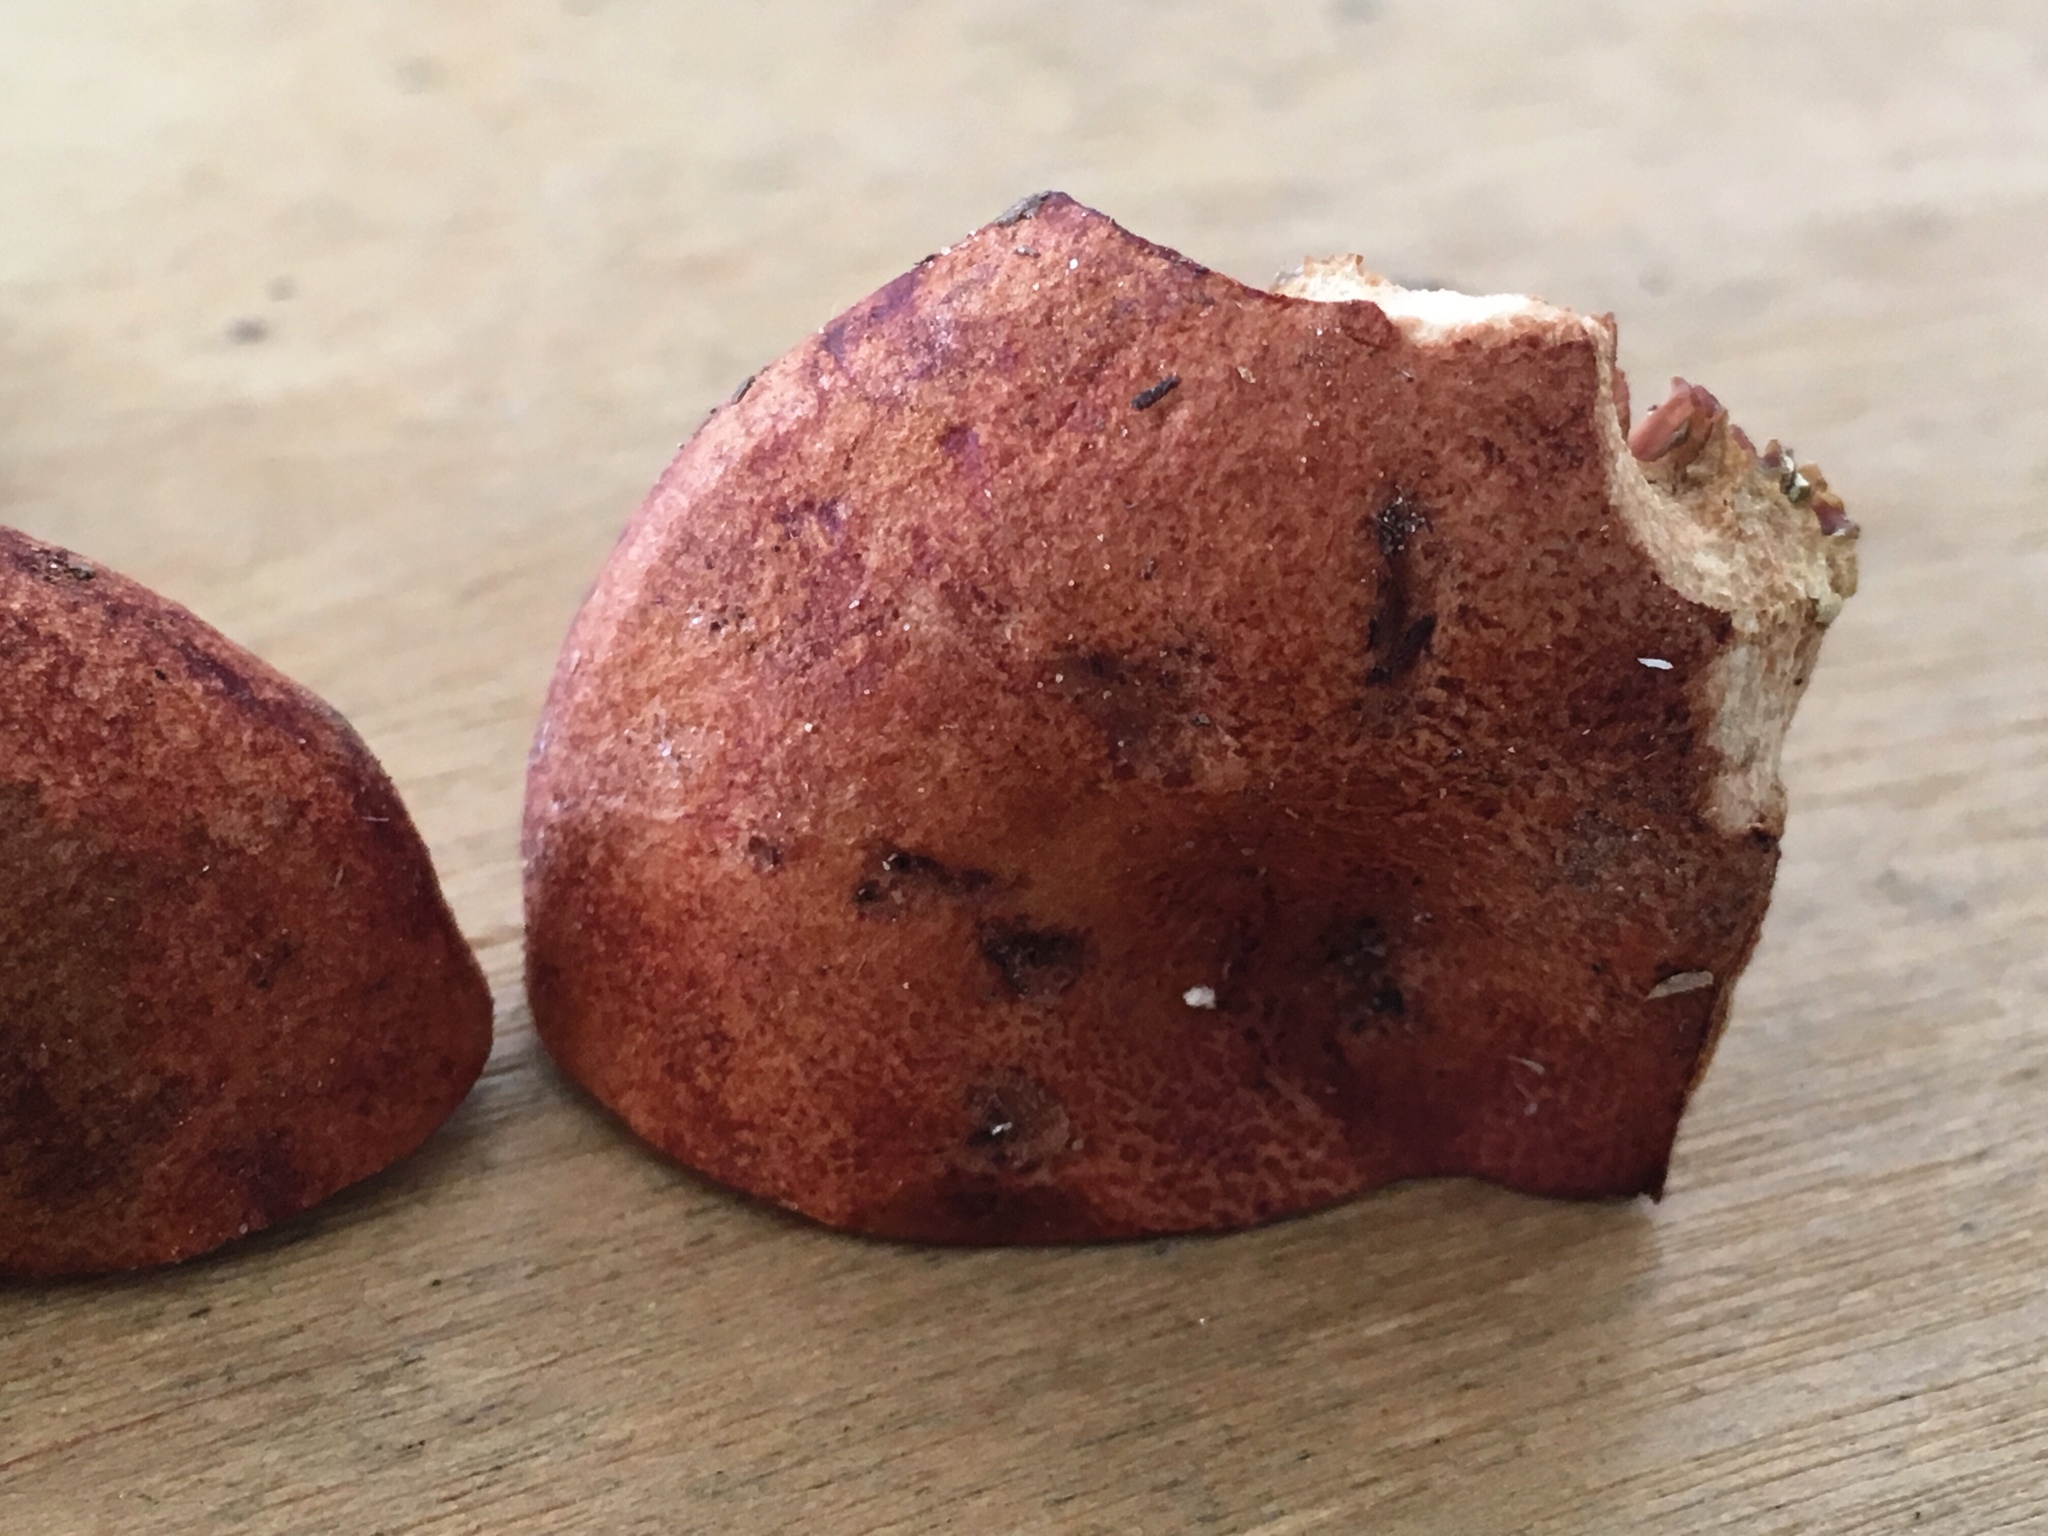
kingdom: Fungi
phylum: Basidiomycota
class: Agaricomycetes
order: Russulales
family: Russulaceae
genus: Lactarius
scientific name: Lactarius peckii
